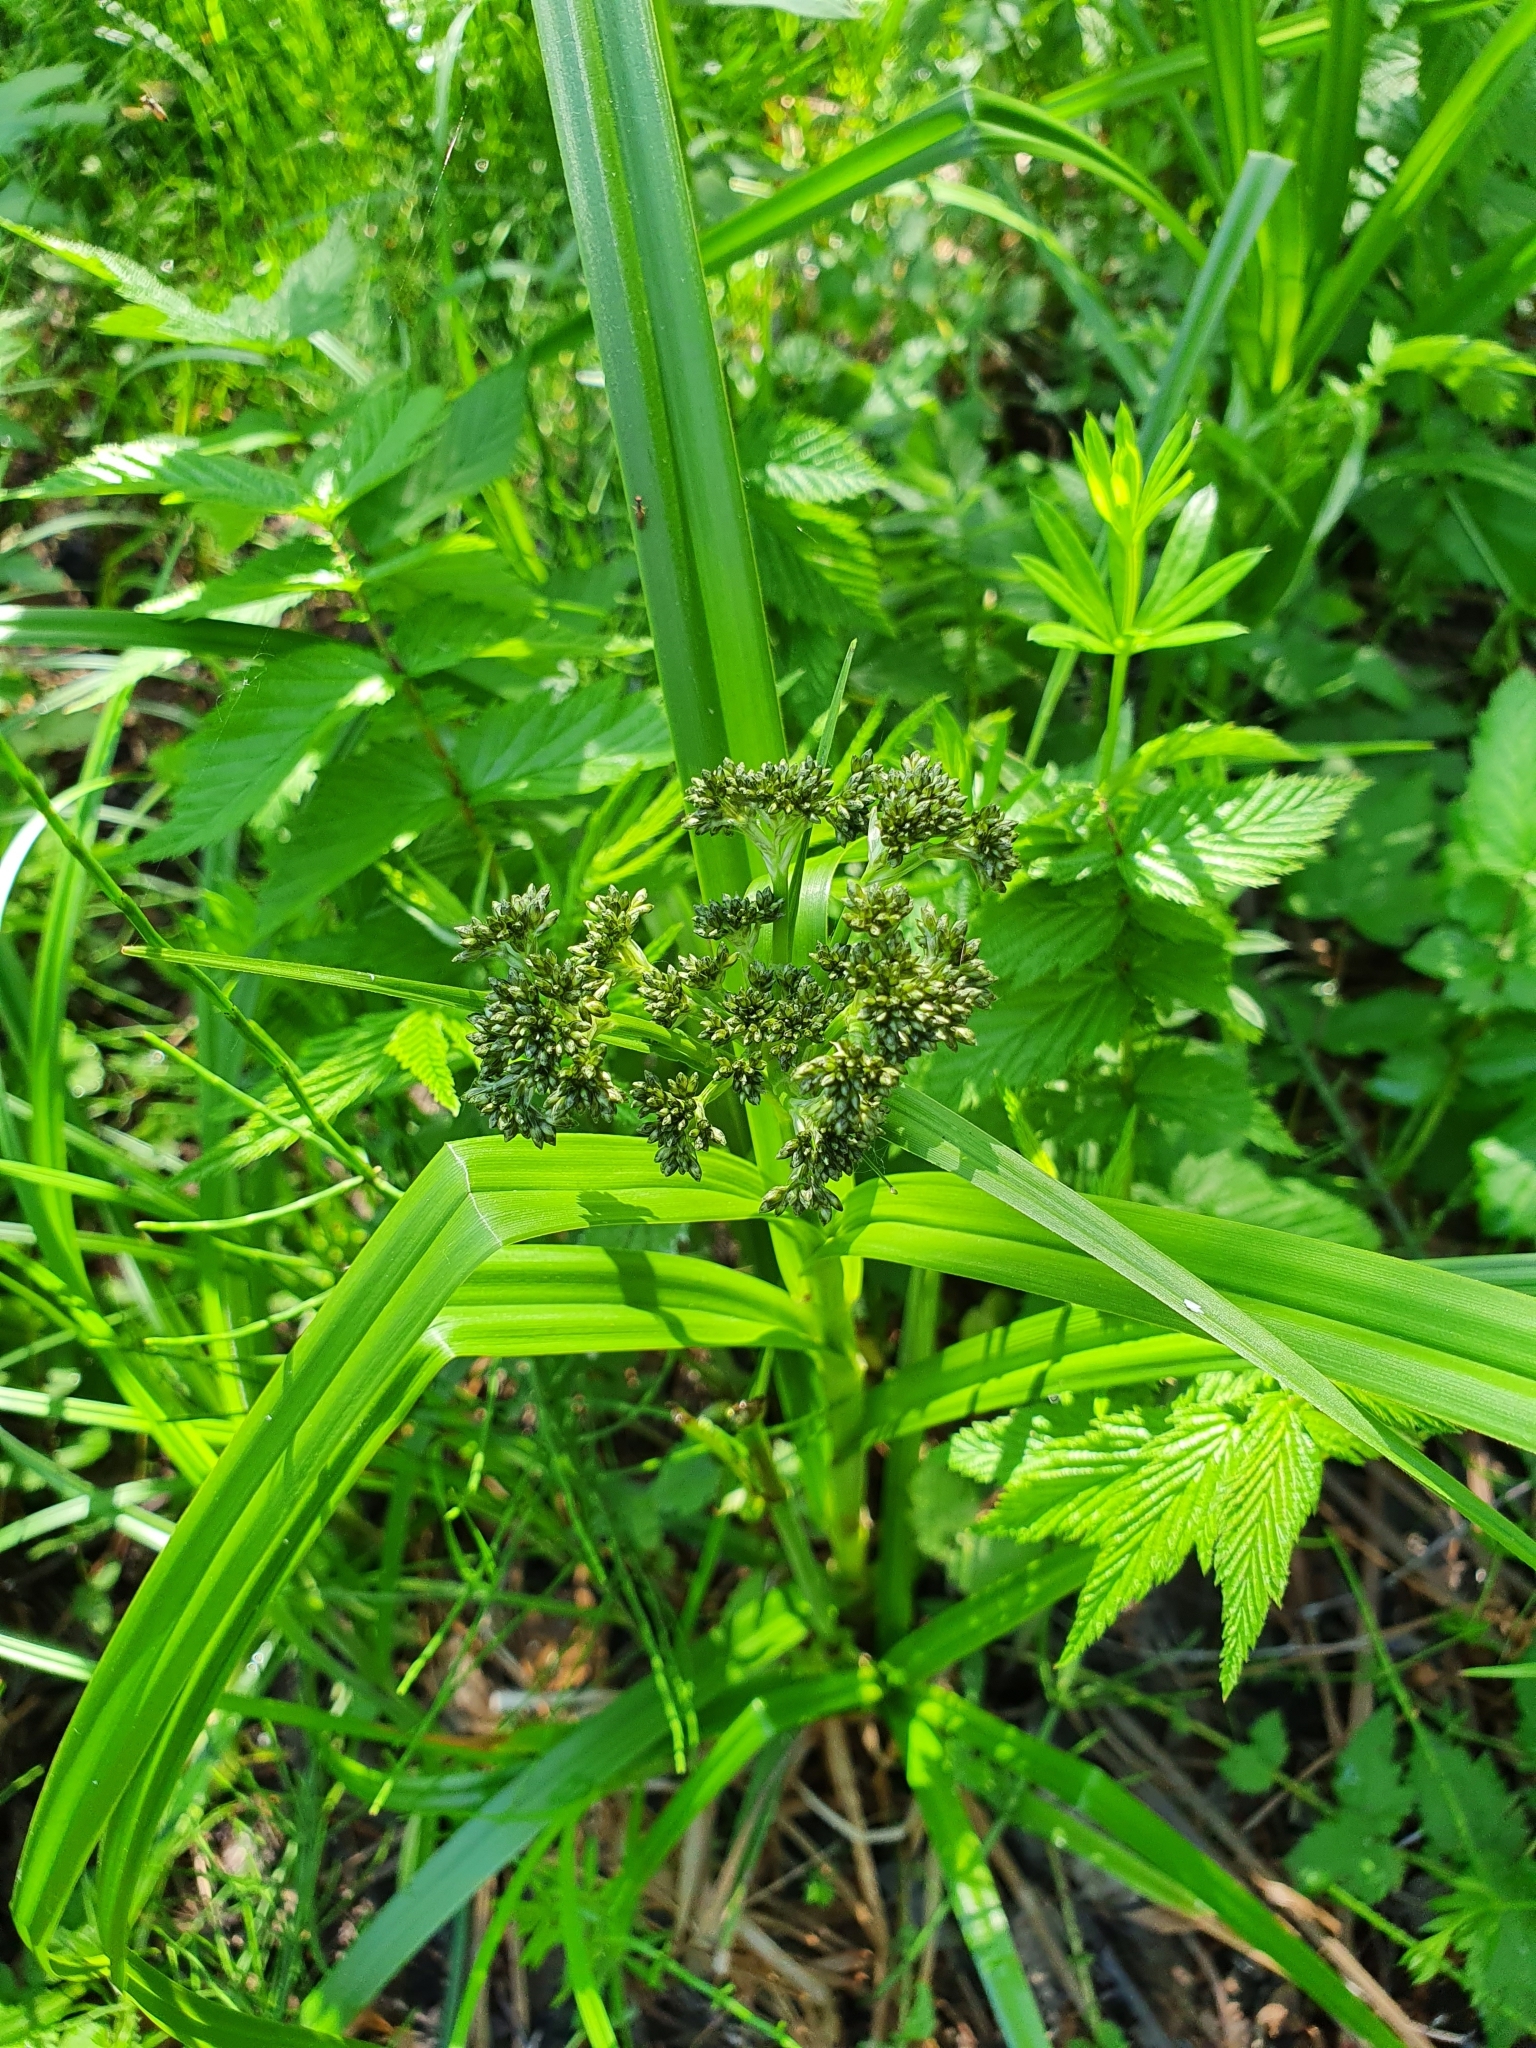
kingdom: Plantae
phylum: Tracheophyta
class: Liliopsida
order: Poales
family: Cyperaceae
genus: Scirpus
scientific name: Scirpus sylvaticus
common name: Wood club-rush
